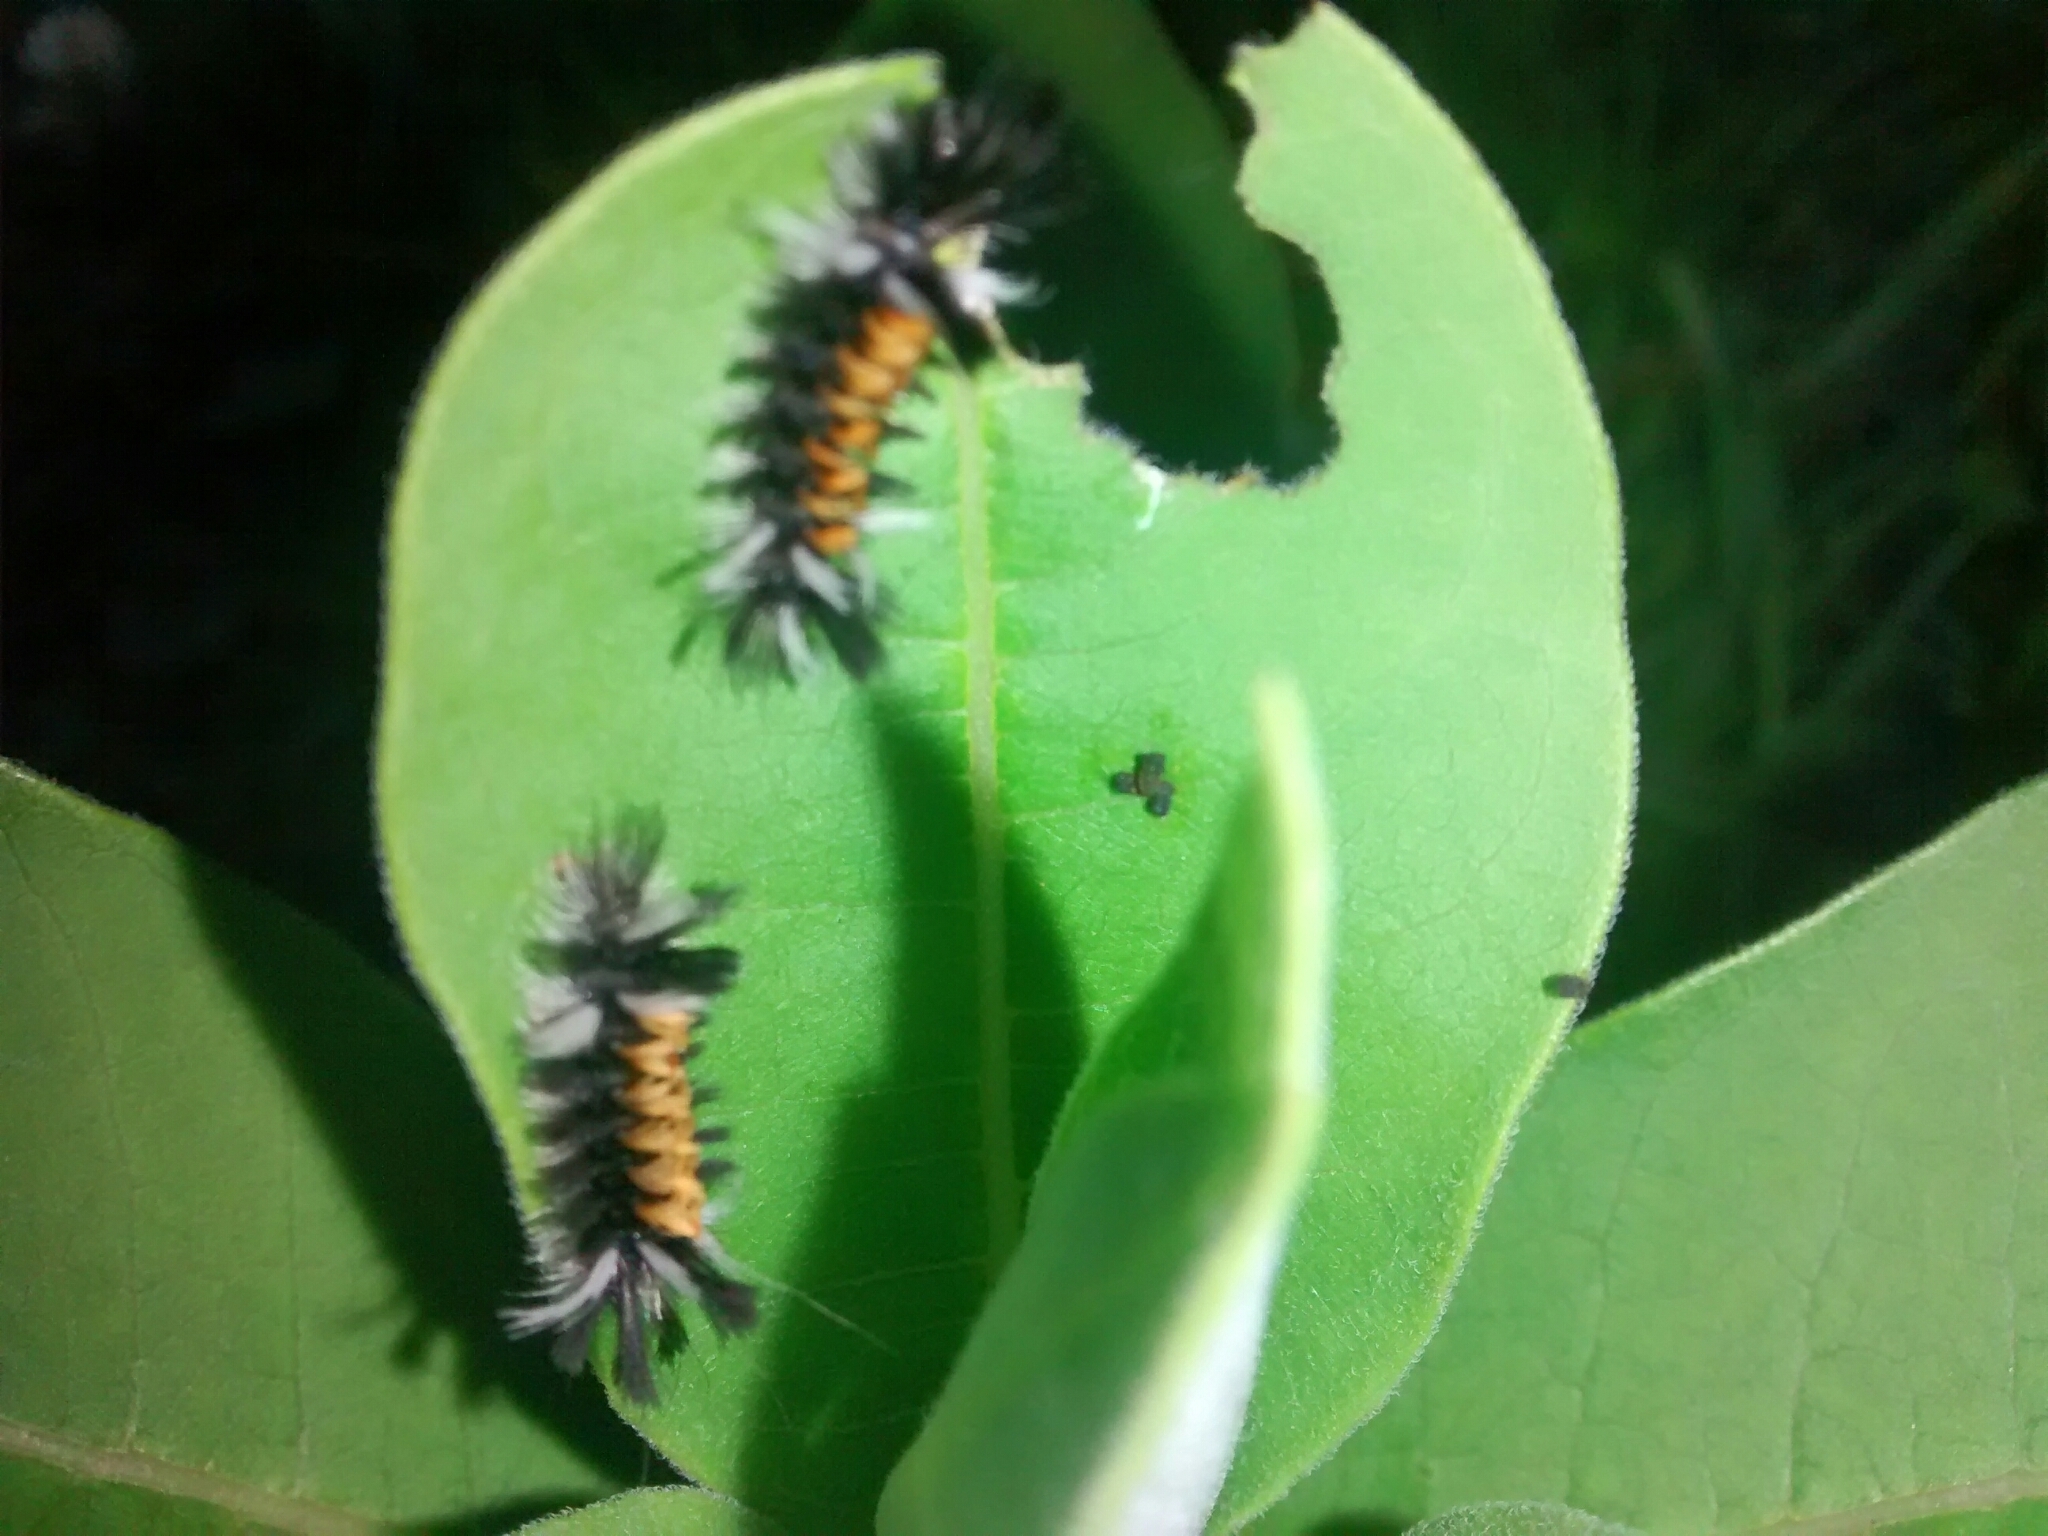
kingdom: Animalia
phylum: Arthropoda
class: Insecta
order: Lepidoptera
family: Erebidae
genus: Euchaetes
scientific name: Euchaetes egle
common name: Milkweed tussock moth
